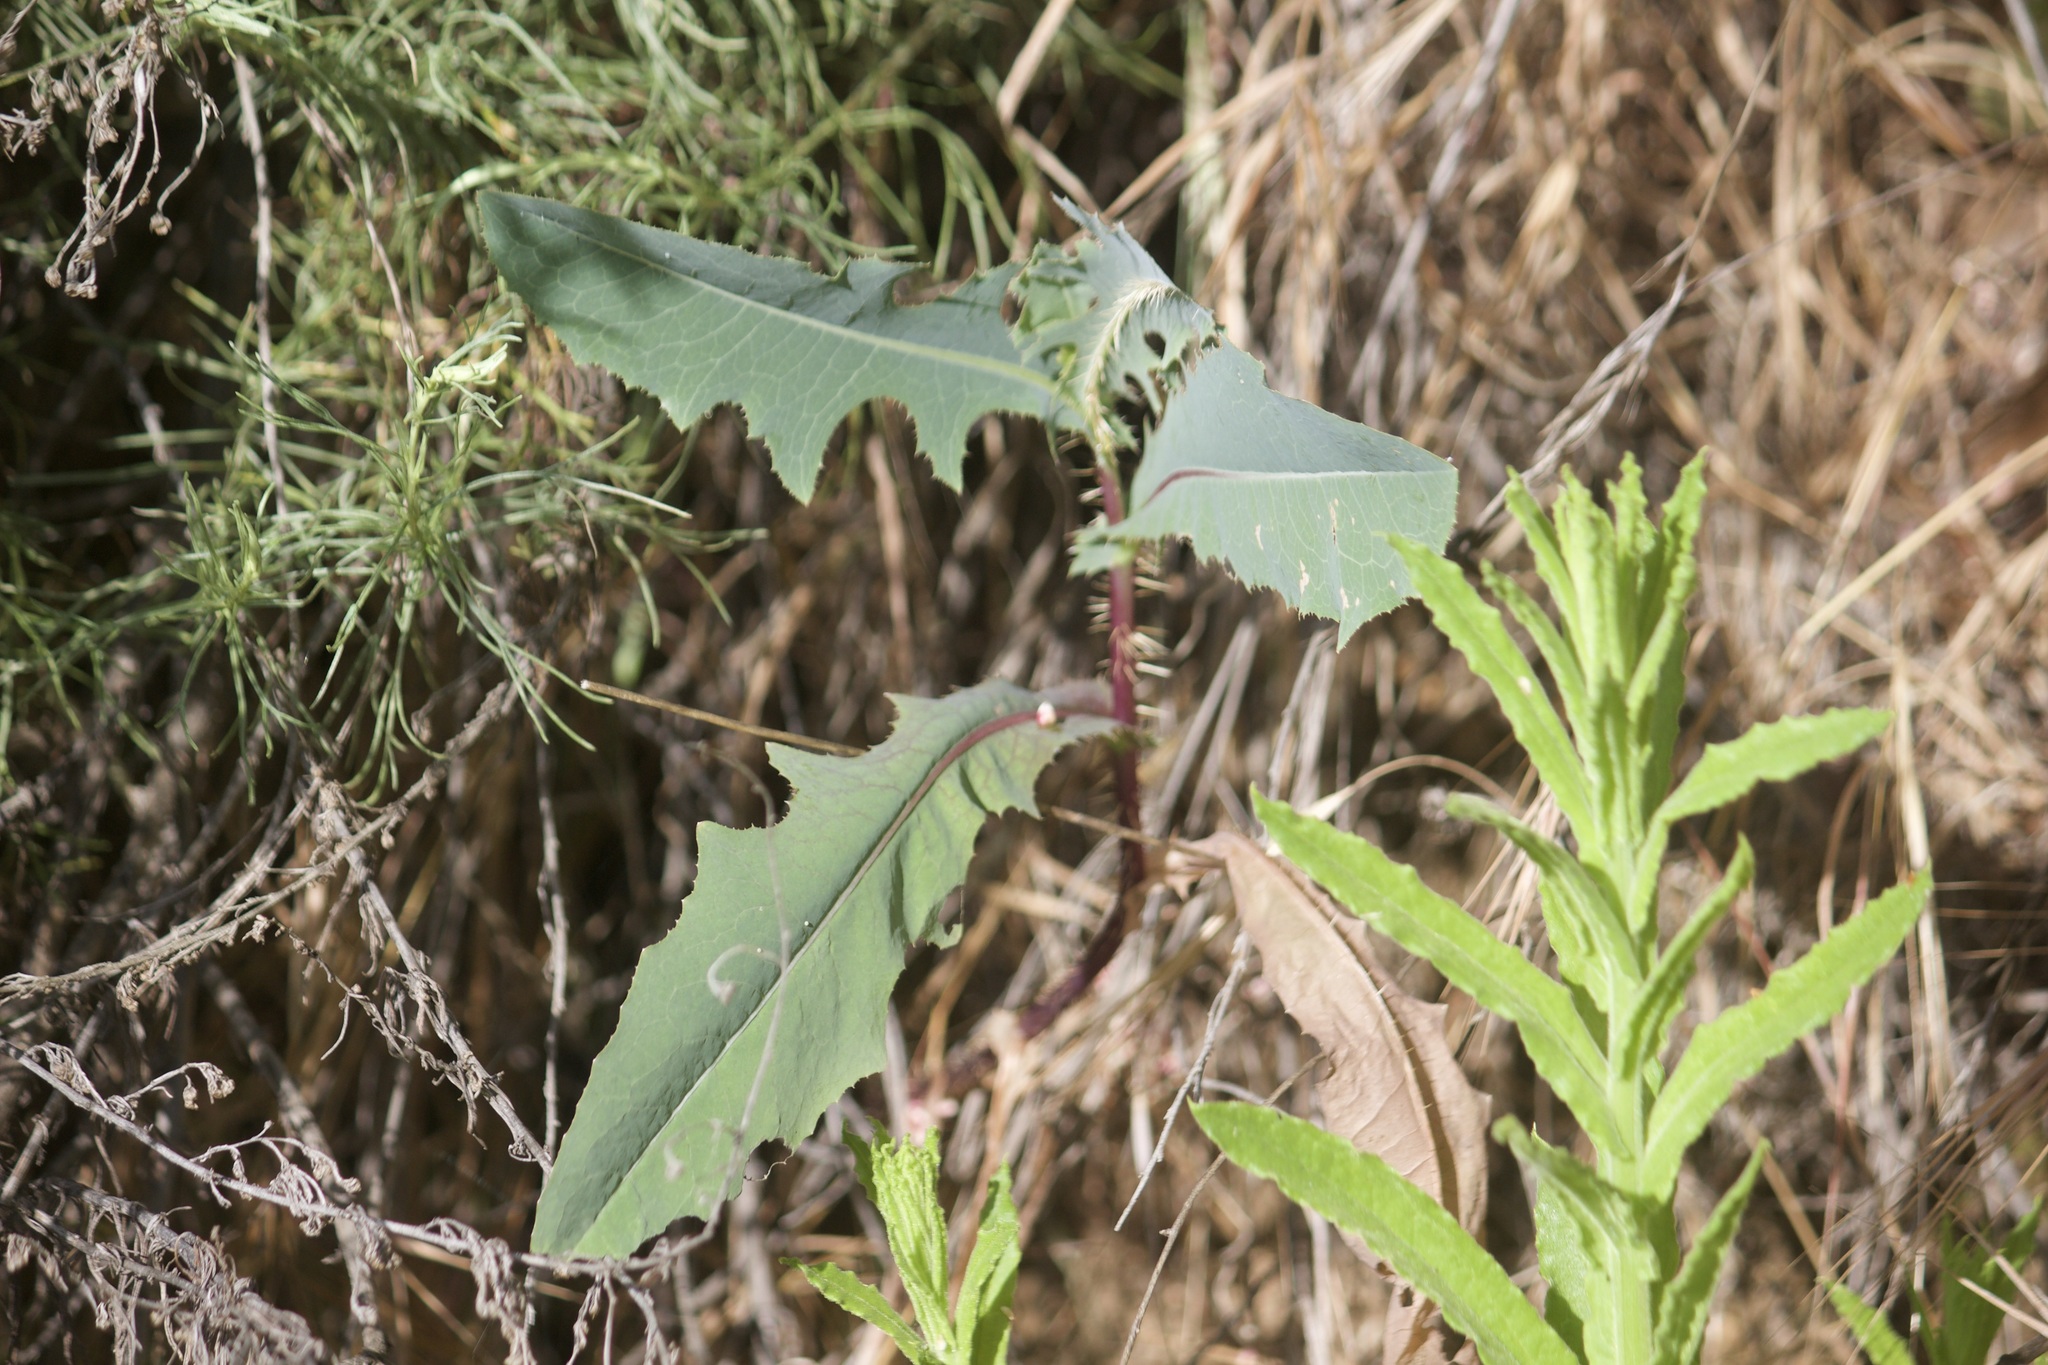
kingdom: Plantae
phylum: Tracheophyta
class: Magnoliopsida
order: Asterales
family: Asteraceae
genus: Lactuca
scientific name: Lactuca serriola
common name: Prickly lettuce
